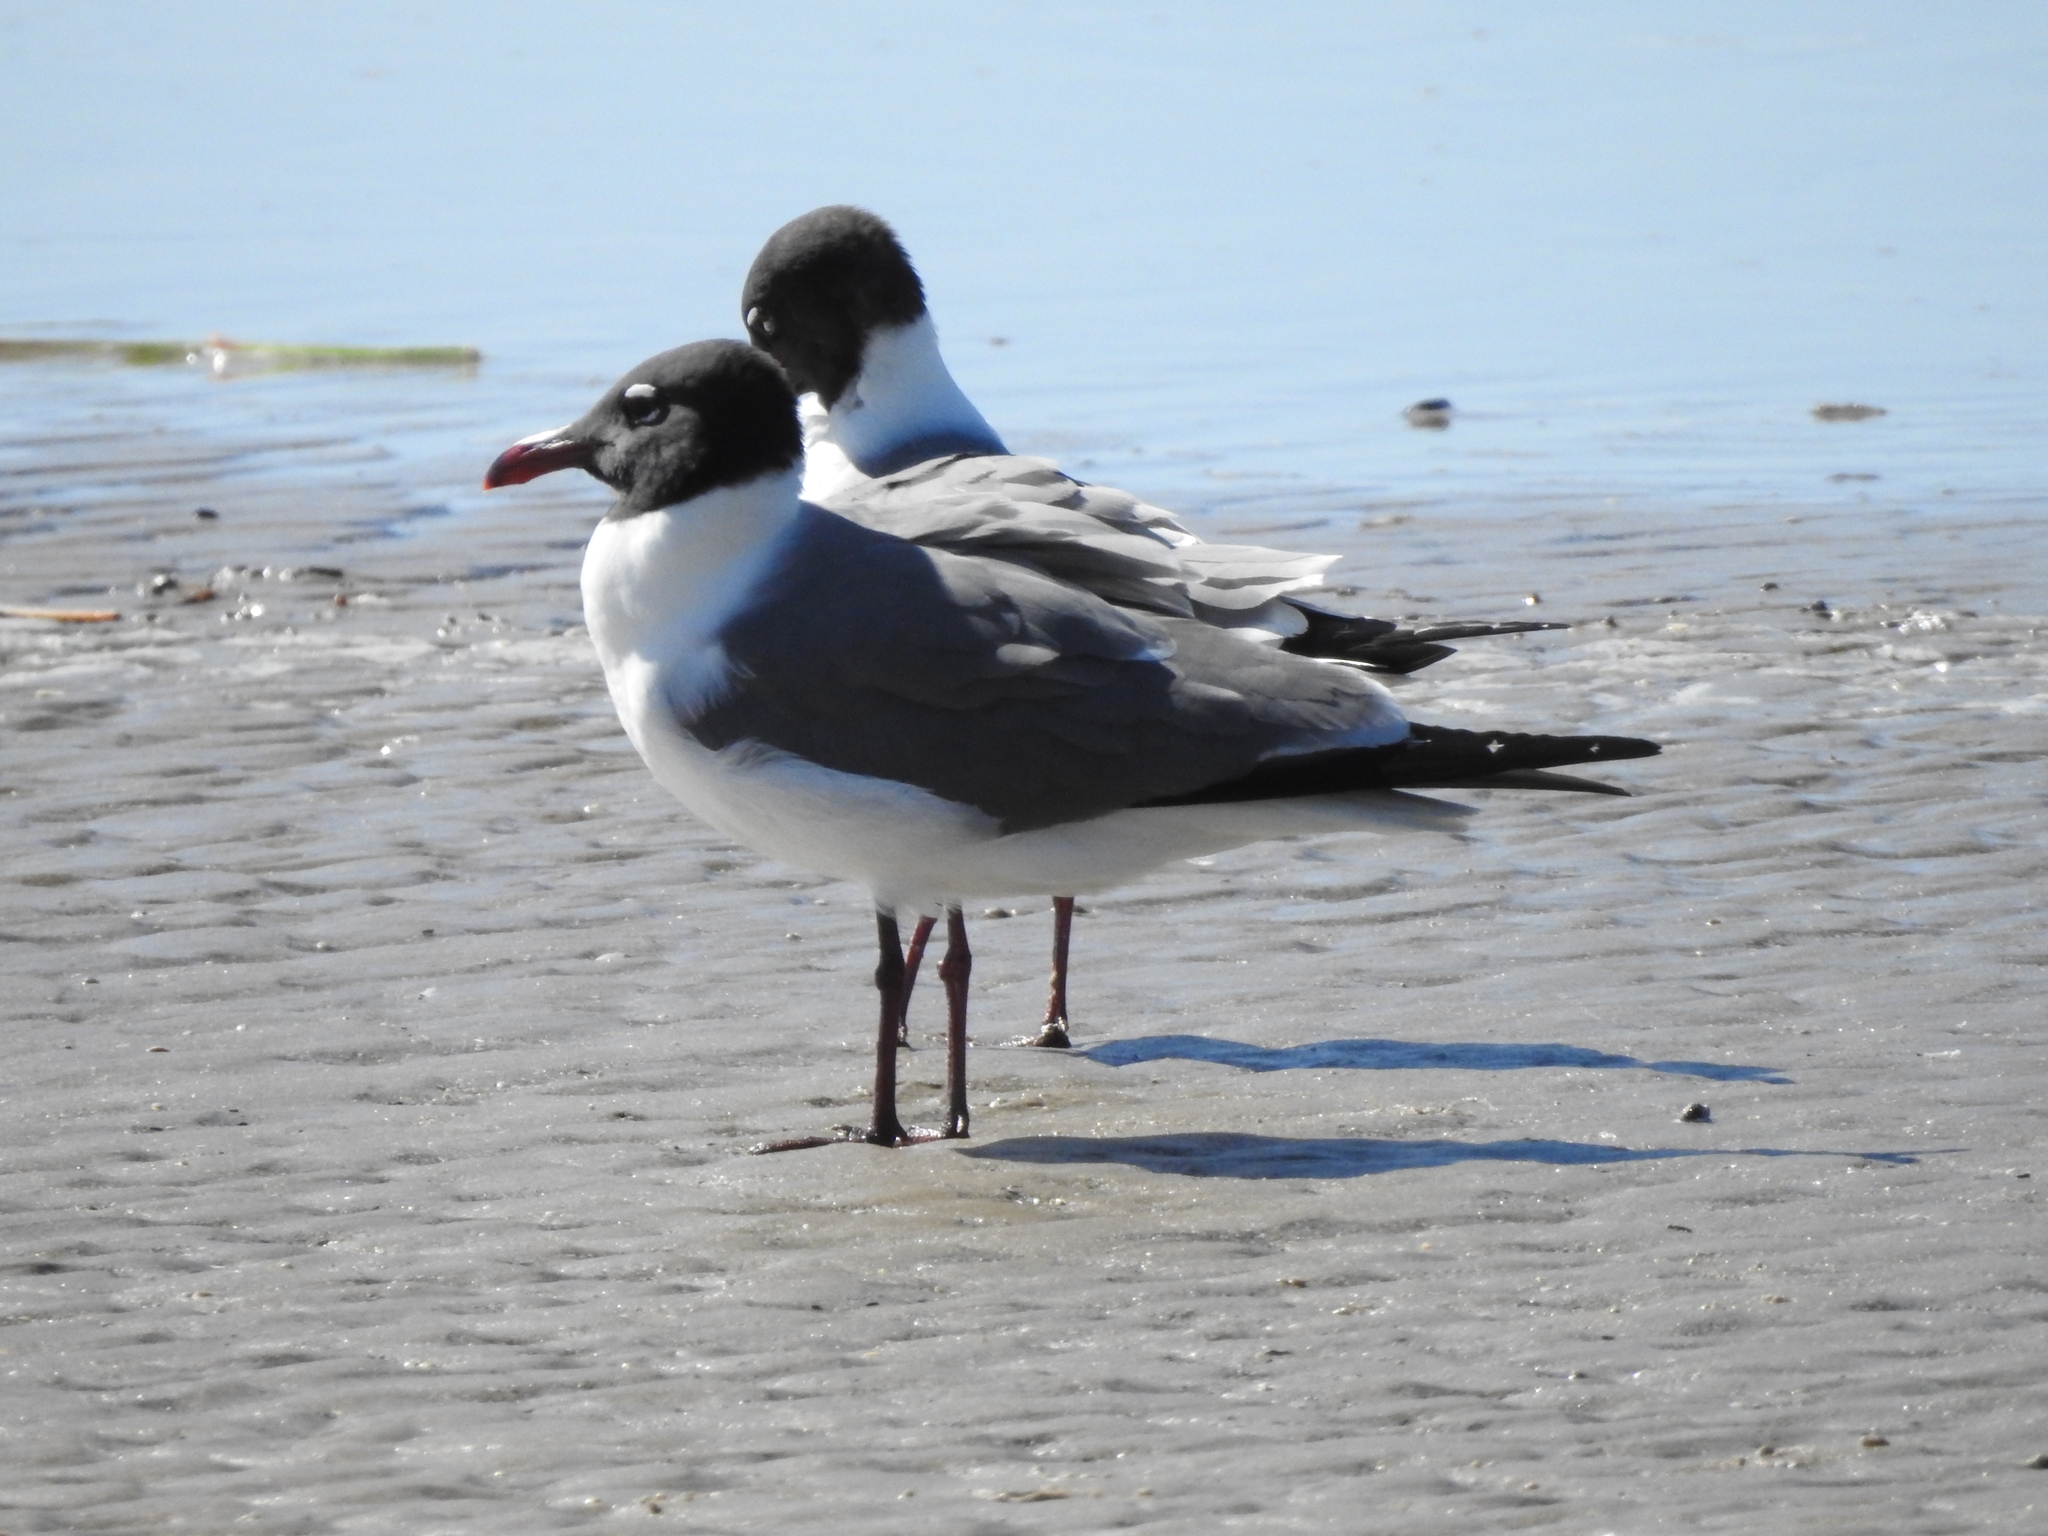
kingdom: Animalia
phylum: Chordata
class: Aves
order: Charadriiformes
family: Laridae
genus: Leucophaeus
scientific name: Leucophaeus atricilla
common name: Laughing gull
